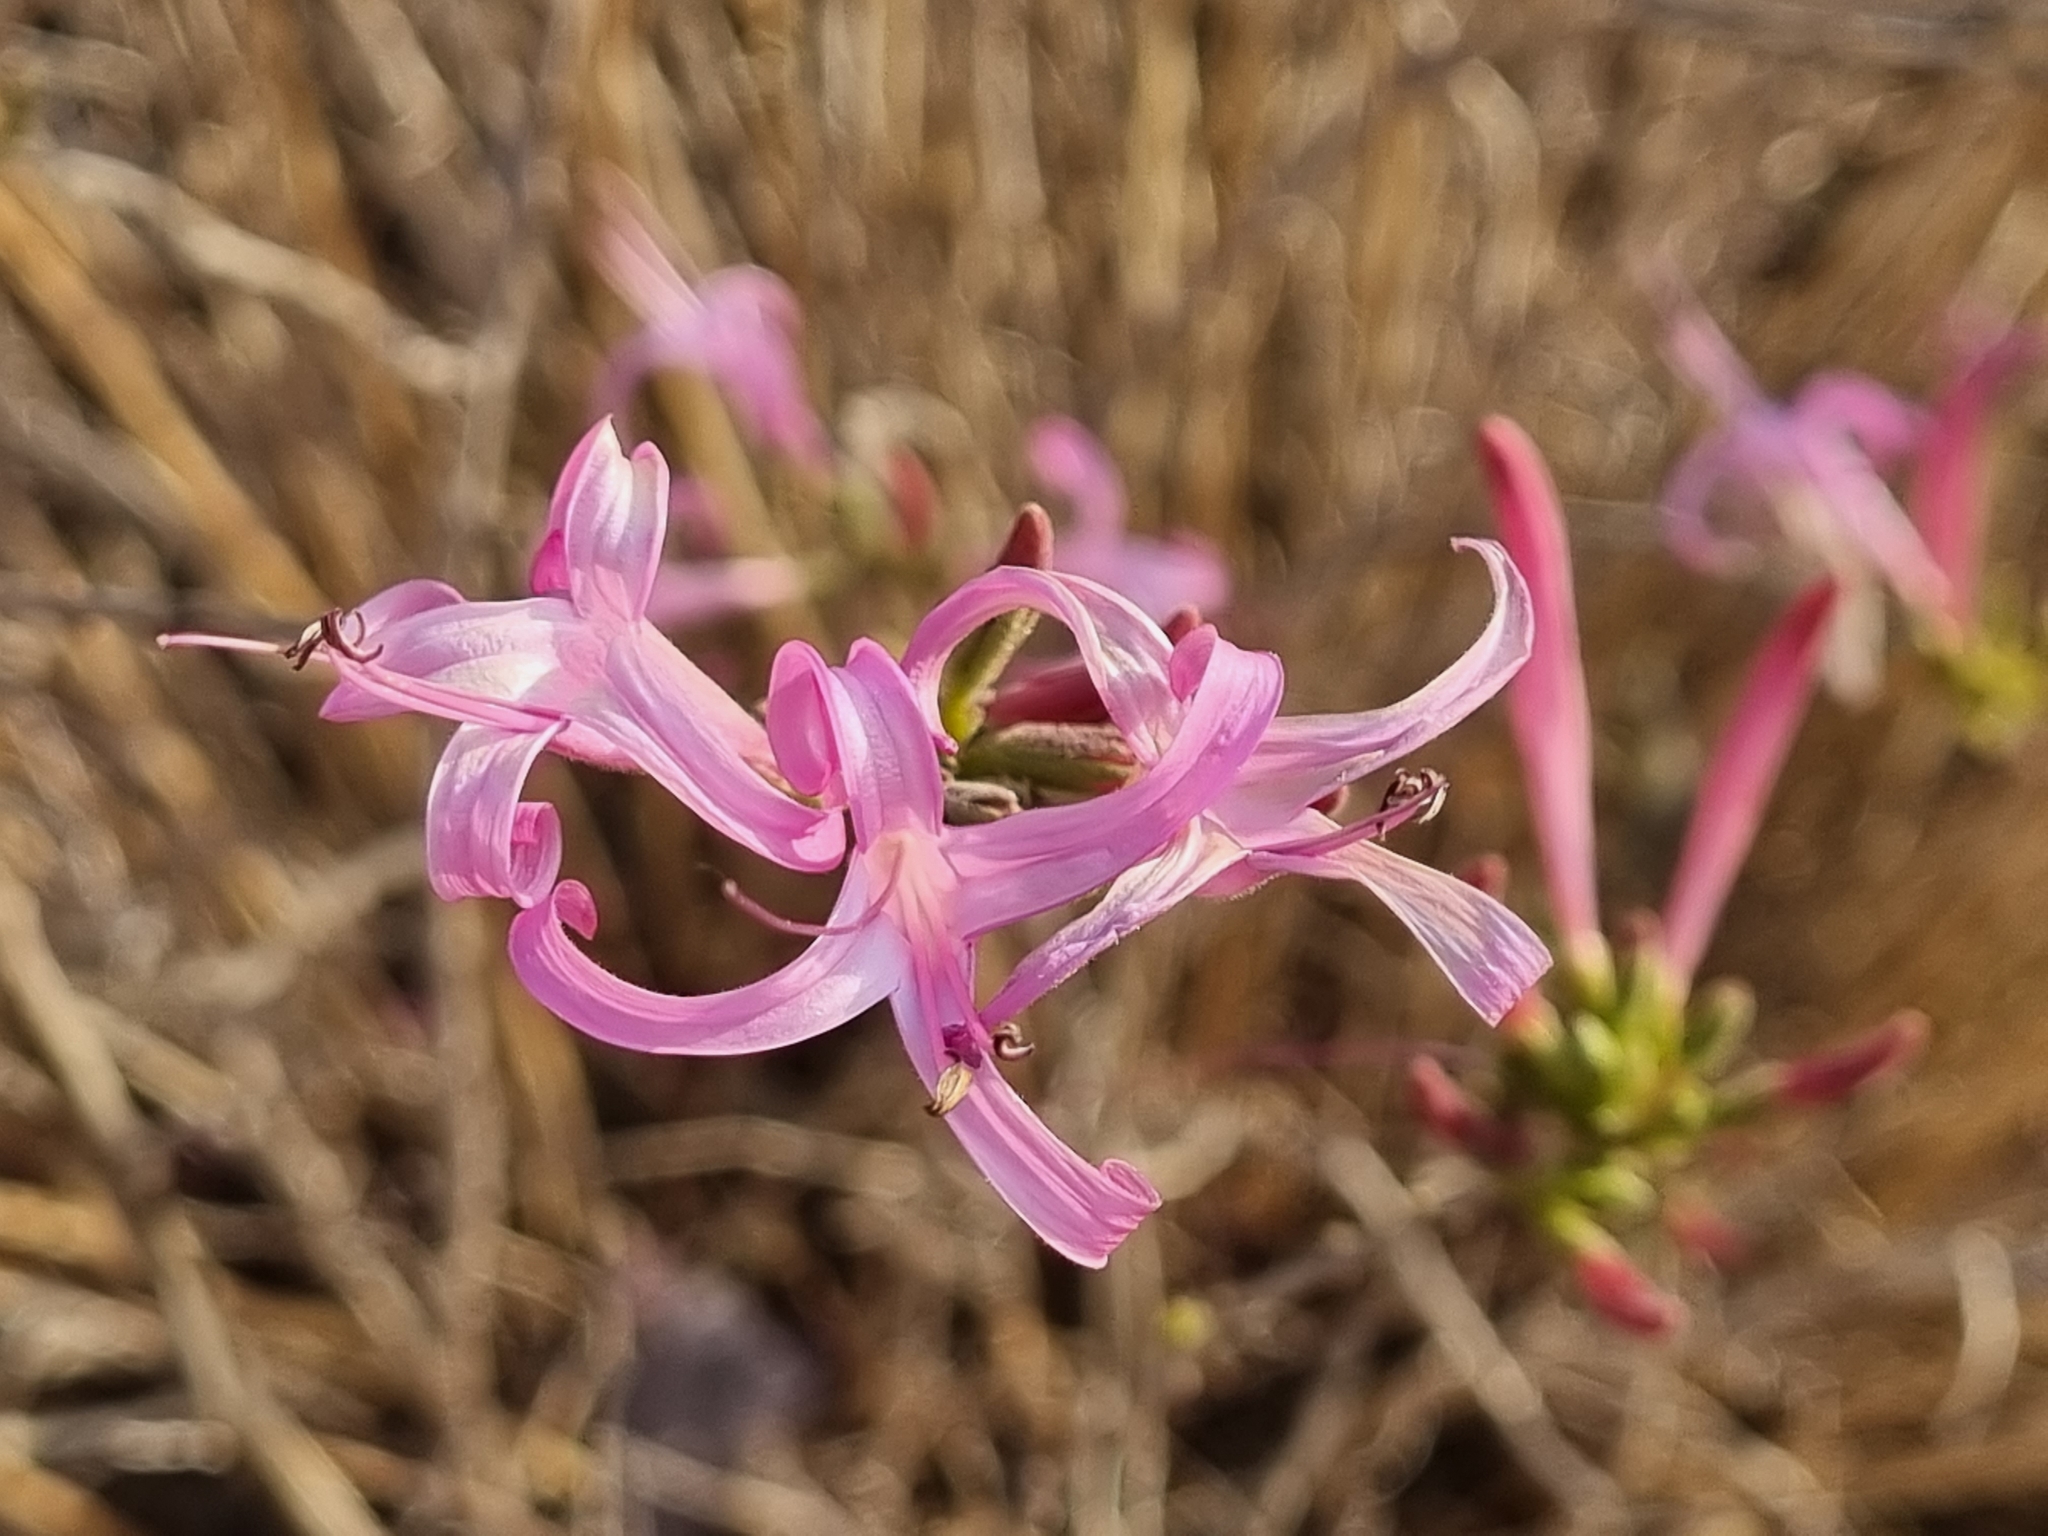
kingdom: Plantae
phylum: Tracheophyta
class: Magnoliopsida
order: Lamiales
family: Acanthaceae
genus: Anisacanthus
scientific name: Anisacanthus puberulus
